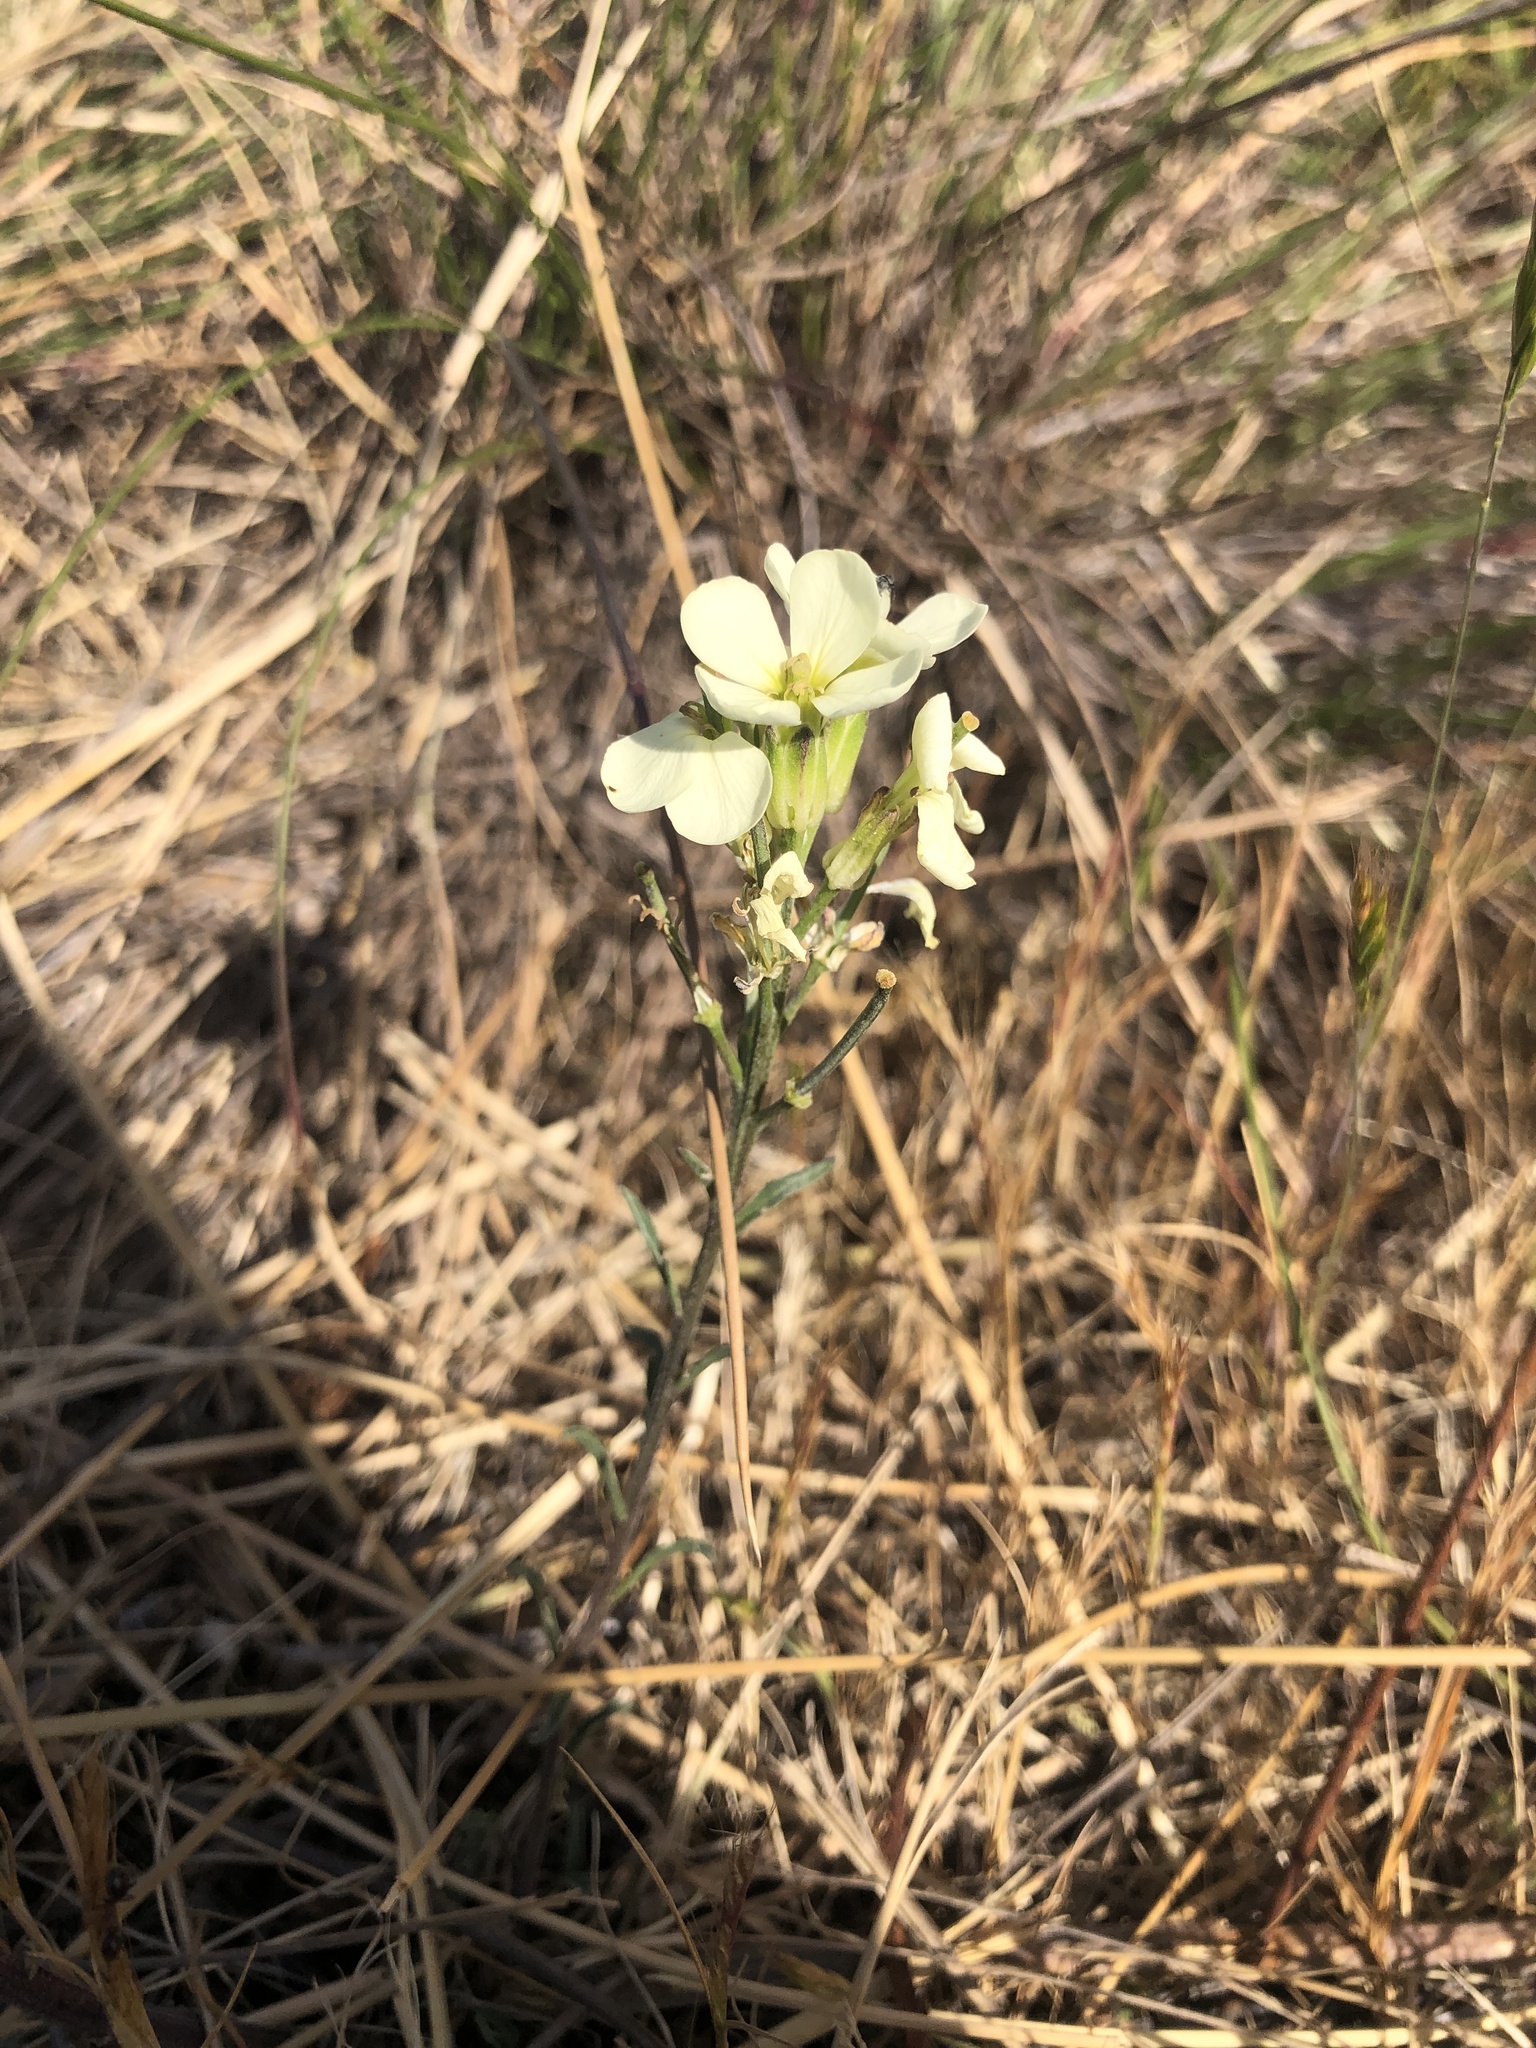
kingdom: Plantae
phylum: Tracheophyta
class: Magnoliopsida
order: Brassicales
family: Brassicaceae
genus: Erysimum
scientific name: Erysimum franciscanum
